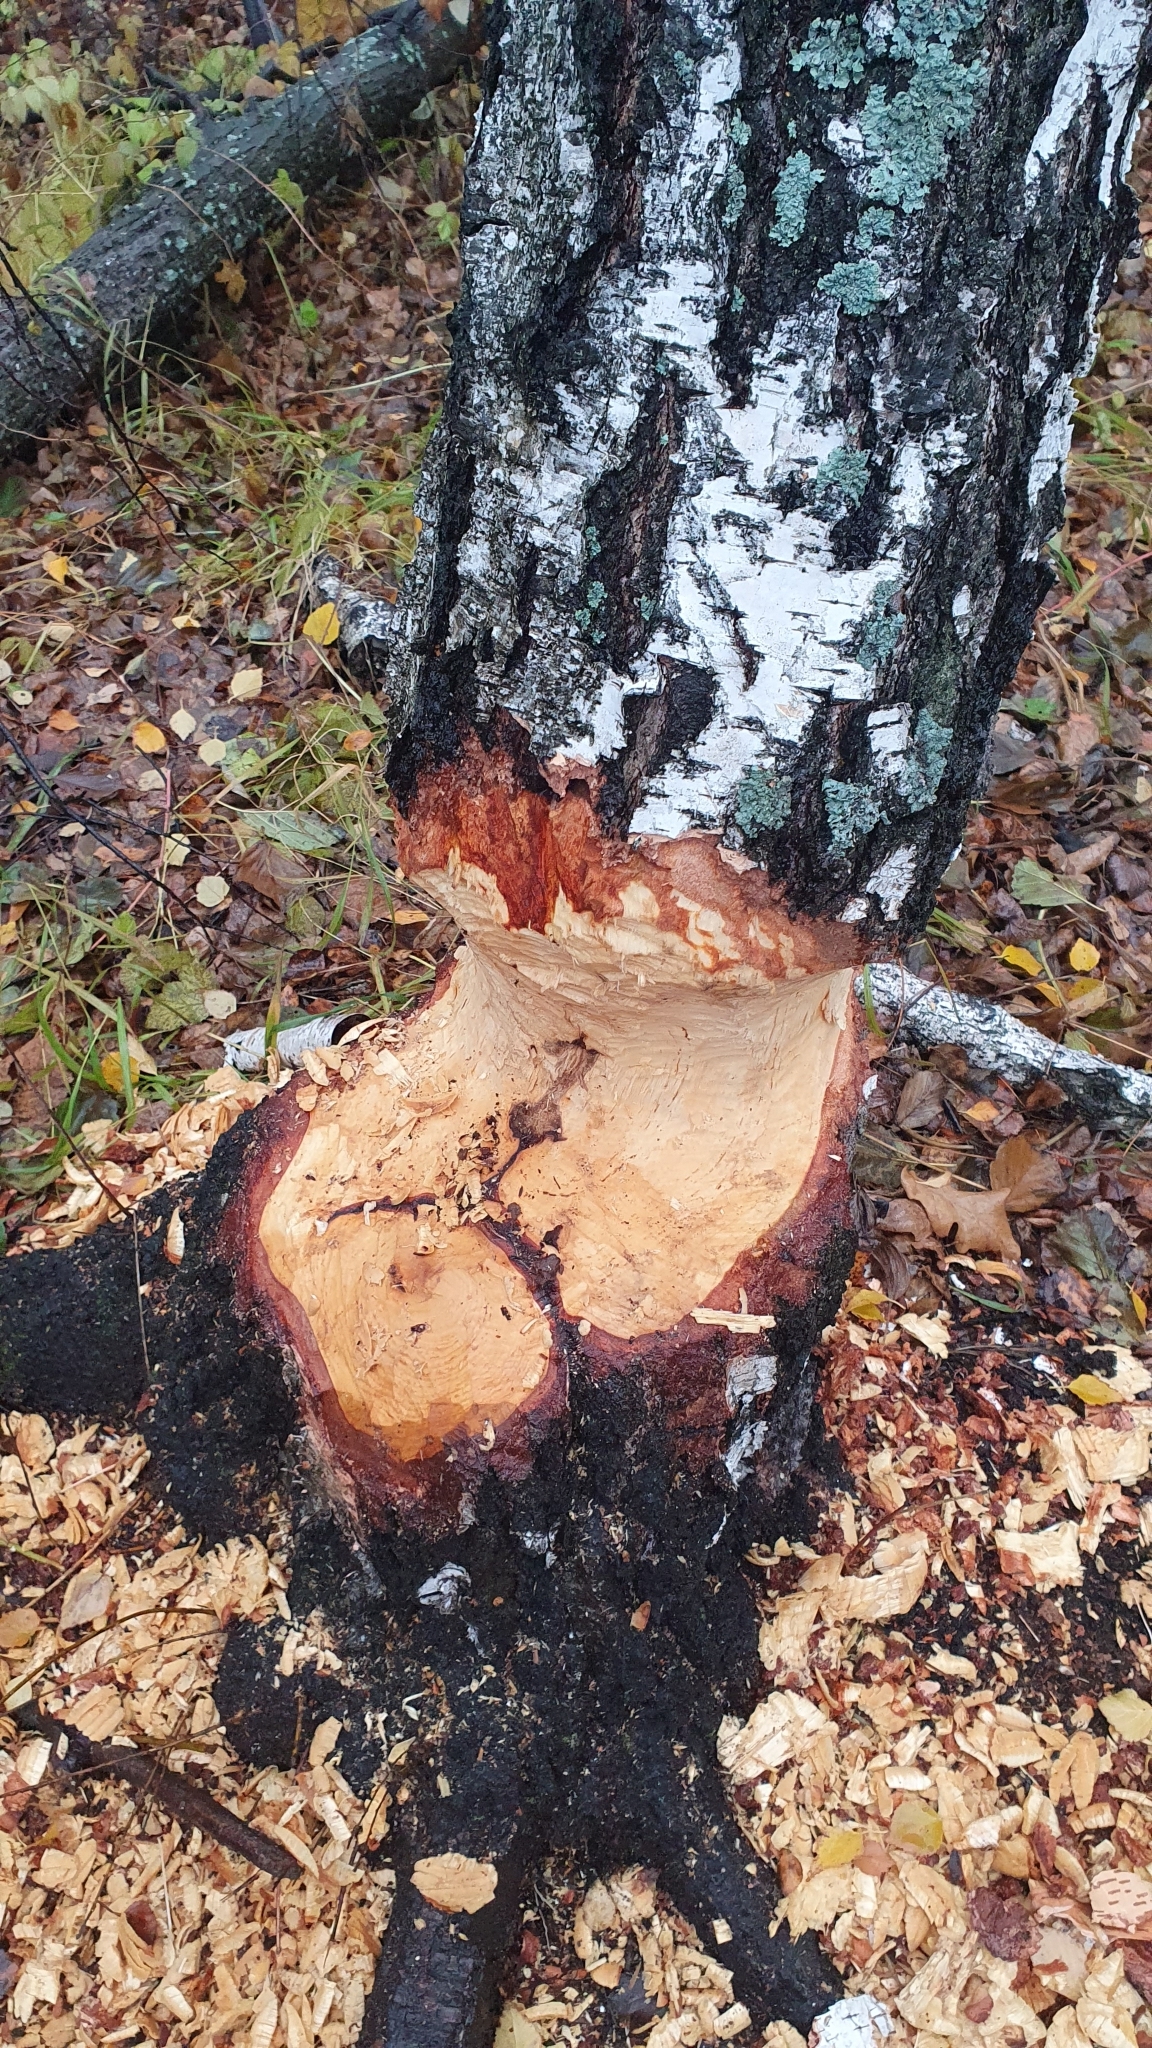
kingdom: Animalia
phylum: Chordata
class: Mammalia
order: Rodentia
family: Castoridae
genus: Castor
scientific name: Castor fiber
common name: Eurasian beaver
